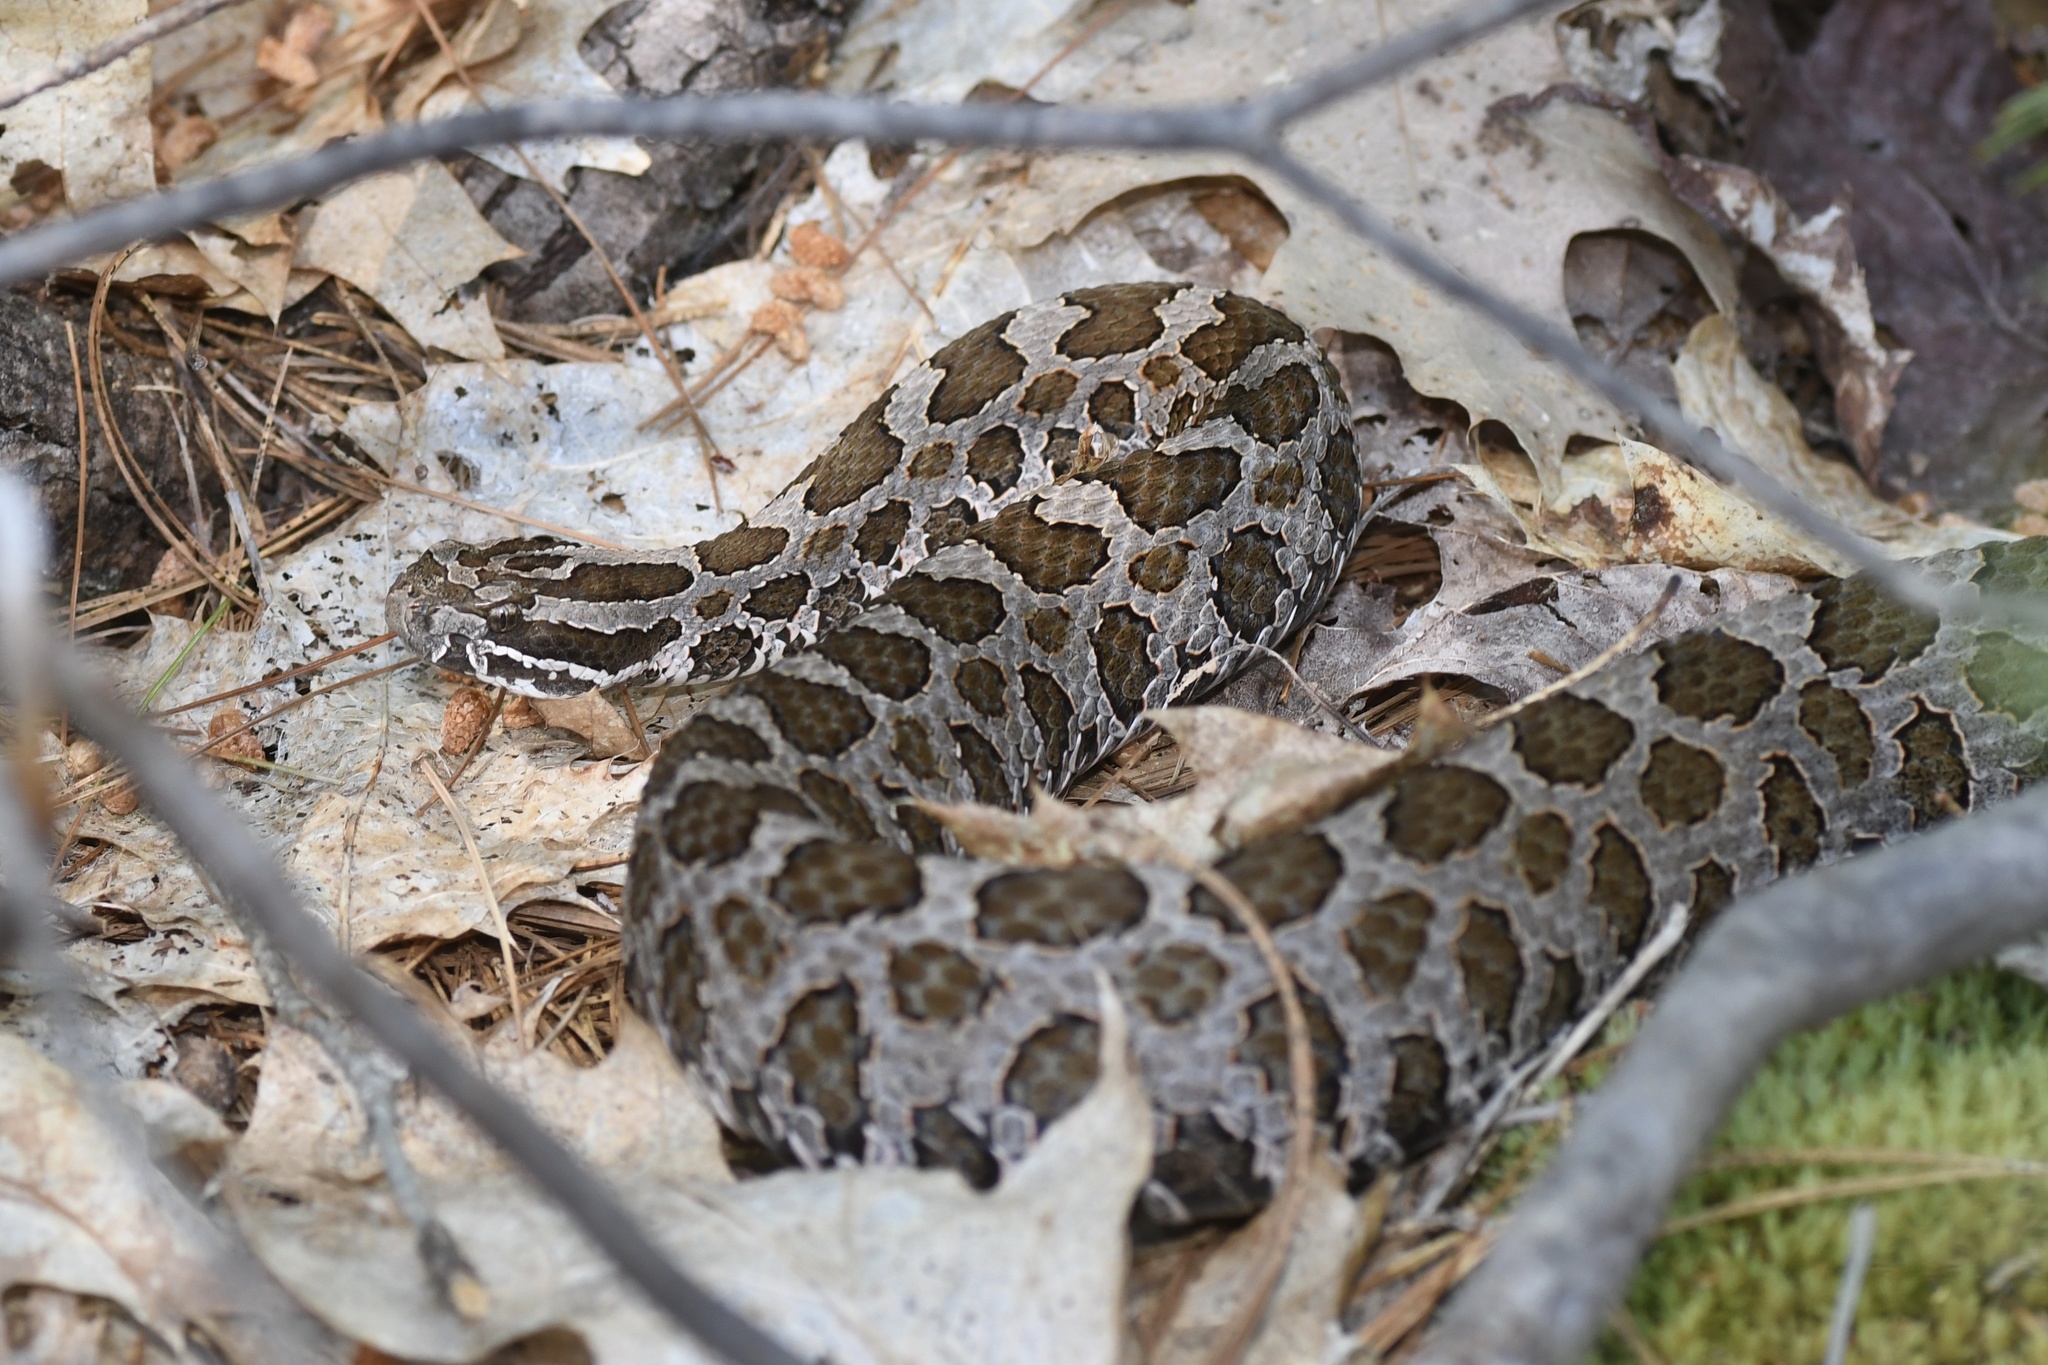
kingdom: Animalia
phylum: Chordata
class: Squamata
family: Viperidae
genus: Sistrurus
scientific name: Sistrurus catenatus
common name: Massasauga
